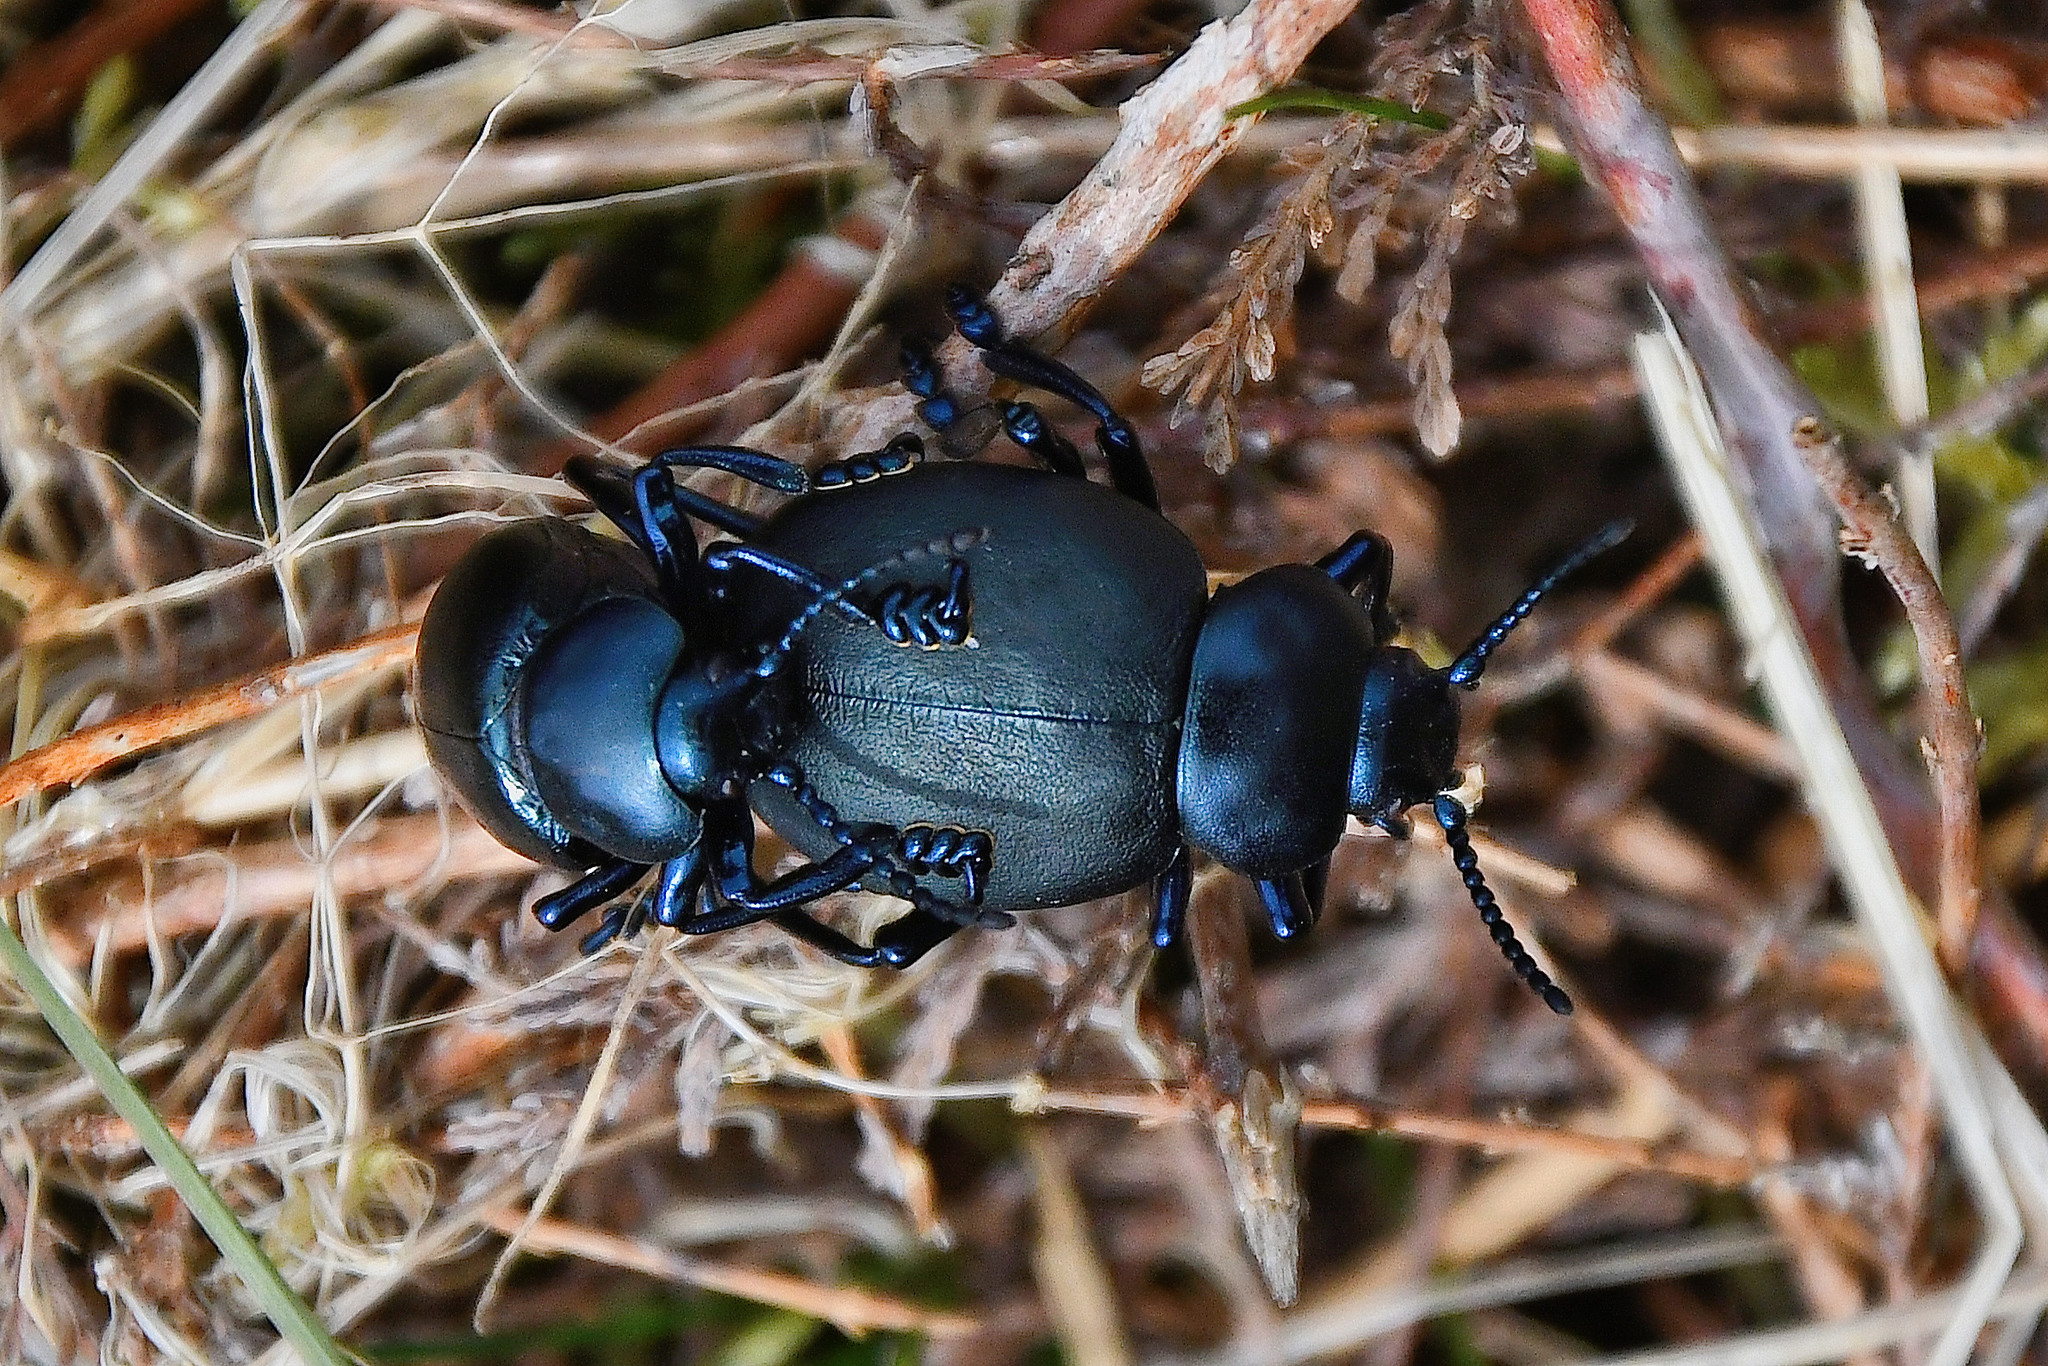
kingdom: Animalia
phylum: Arthropoda
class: Insecta
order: Coleoptera
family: Chrysomelidae
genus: Timarcha
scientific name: Timarcha tenebricosa
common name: Bloody-nosed beetle
